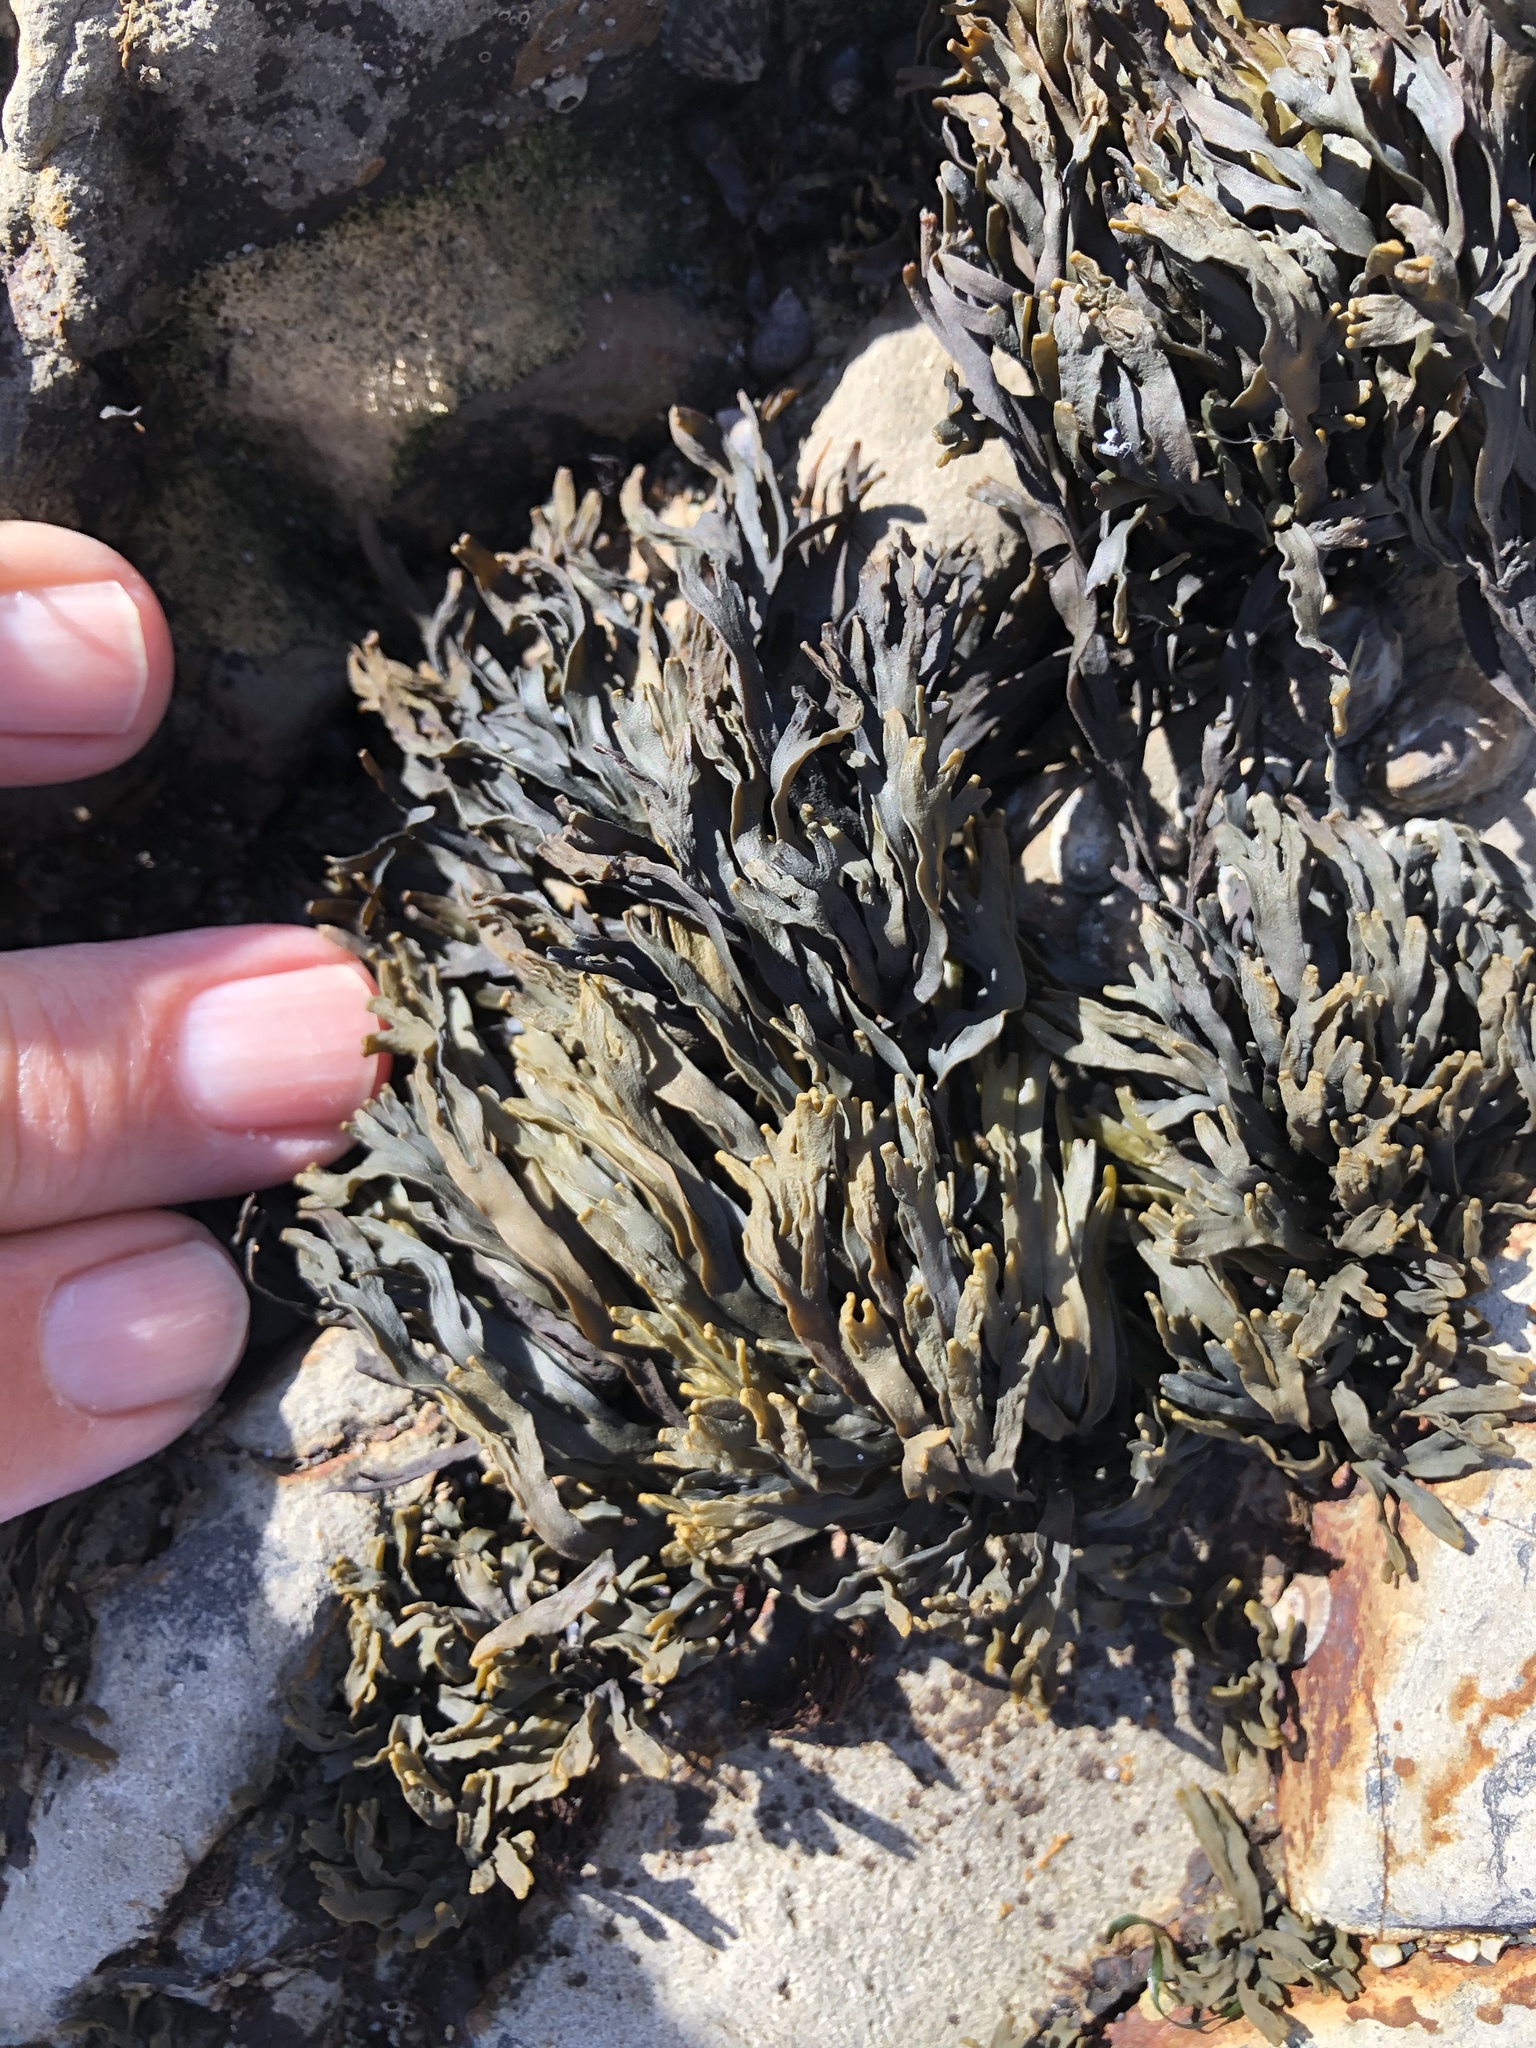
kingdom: Chromista
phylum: Ochrophyta
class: Phaeophyceae
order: Fucales
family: Fucaceae
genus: Pelvetiopsis
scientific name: Pelvetiopsis limitata
